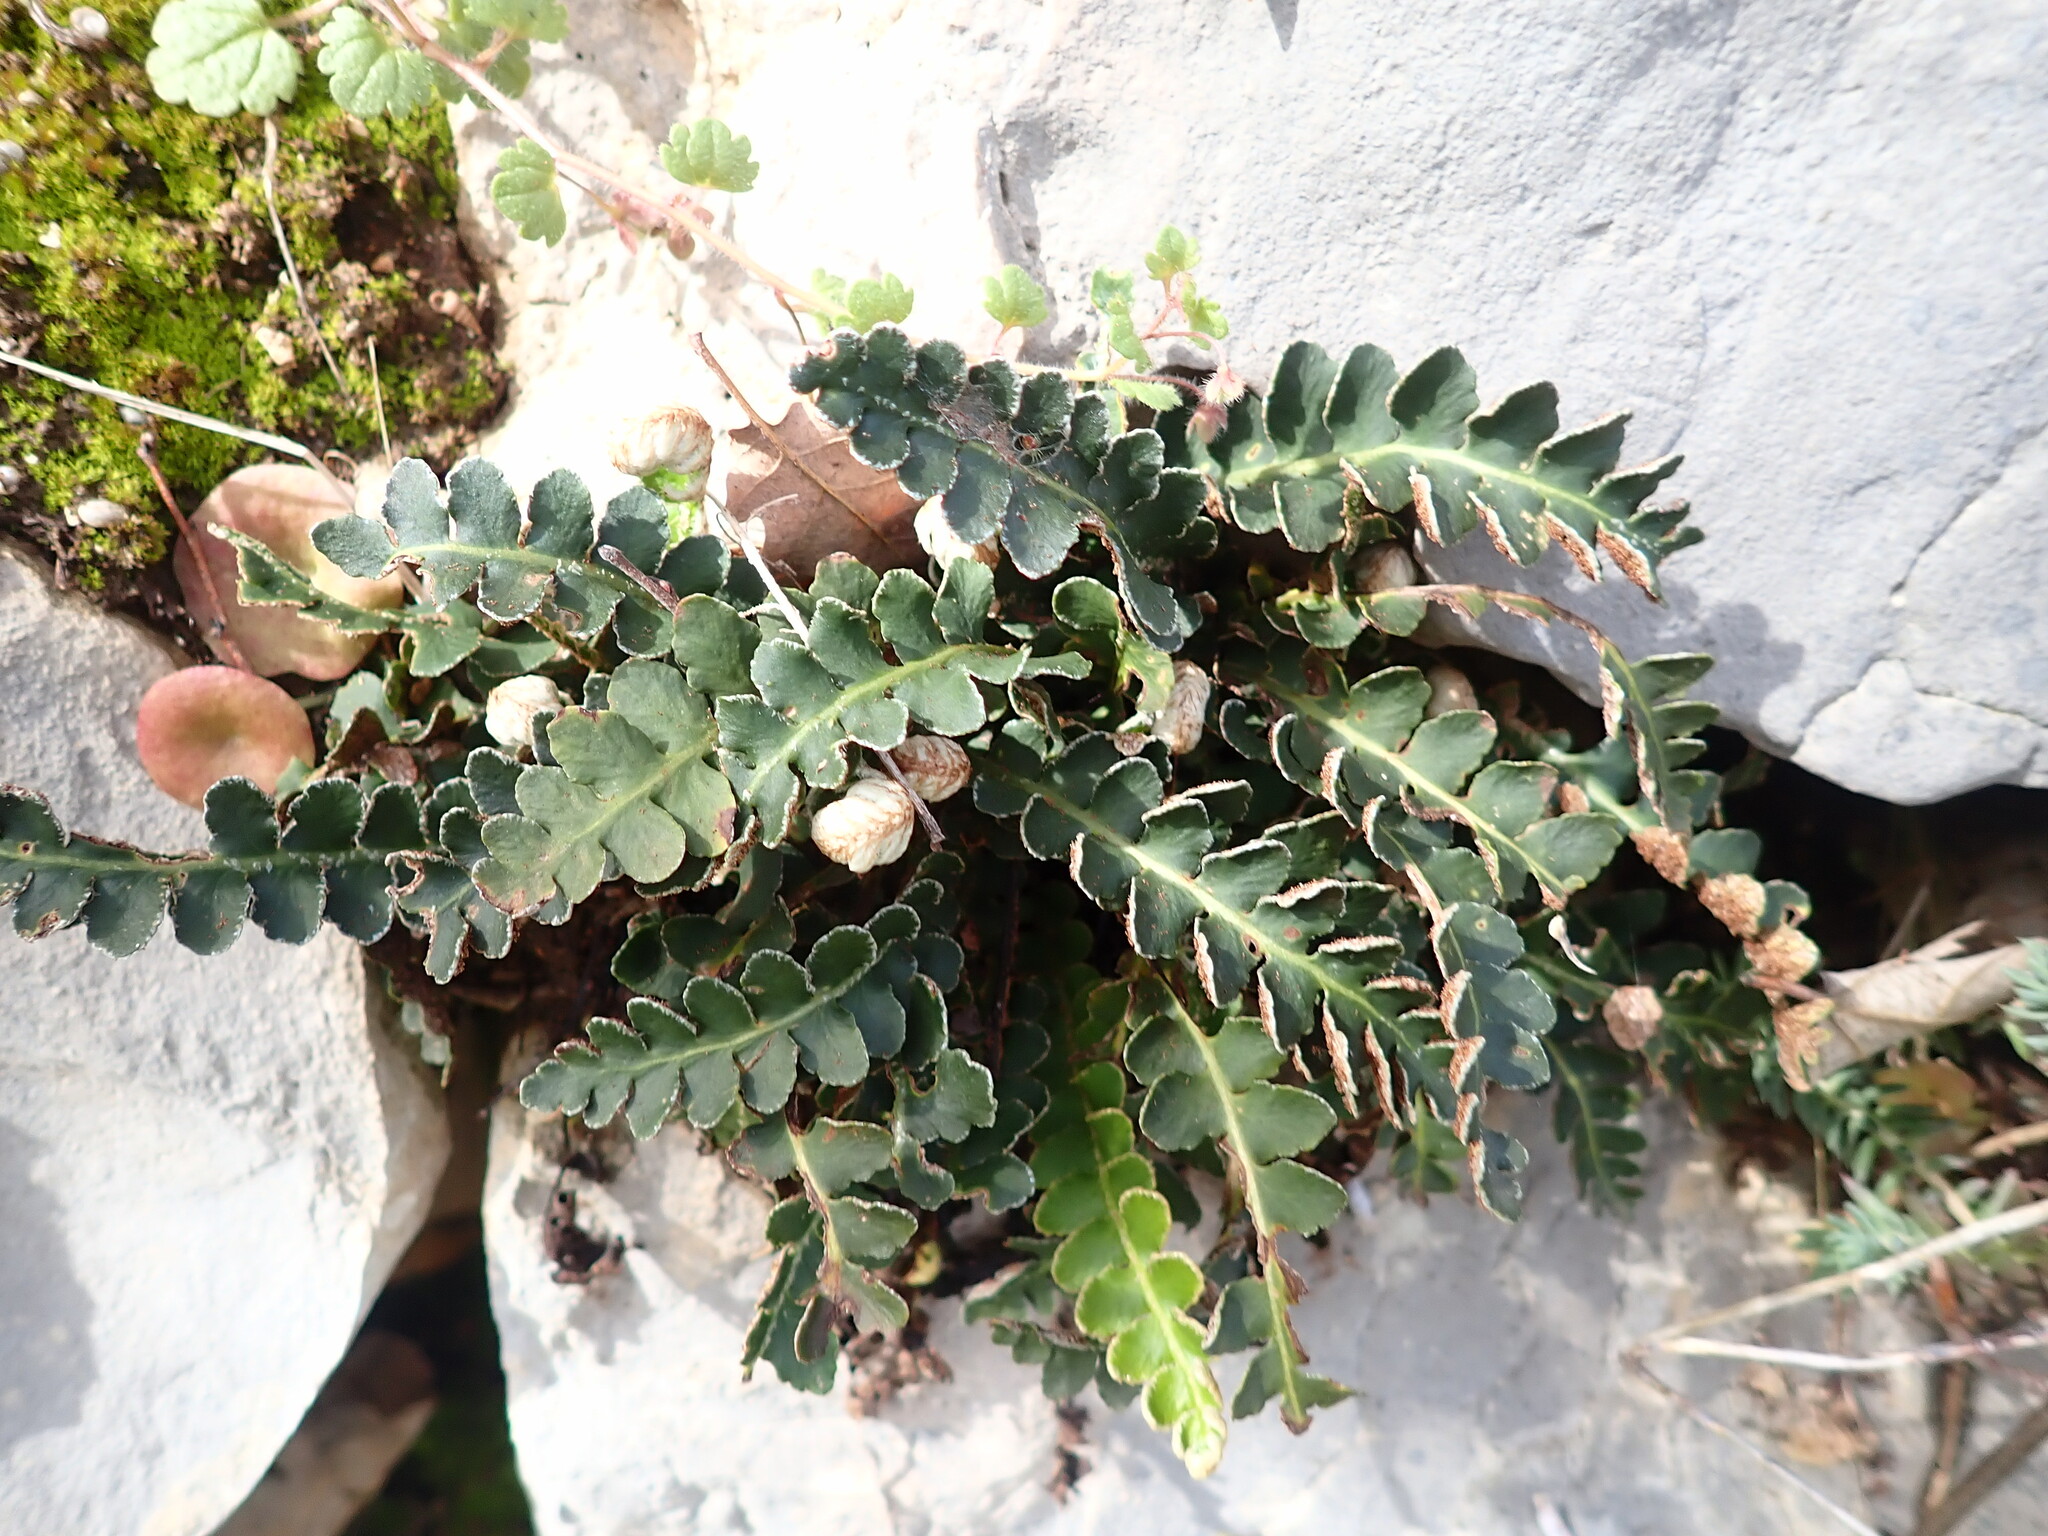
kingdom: Plantae
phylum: Tracheophyta
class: Polypodiopsida
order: Polypodiales
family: Aspleniaceae
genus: Asplenium
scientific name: Asplenium ceterach
